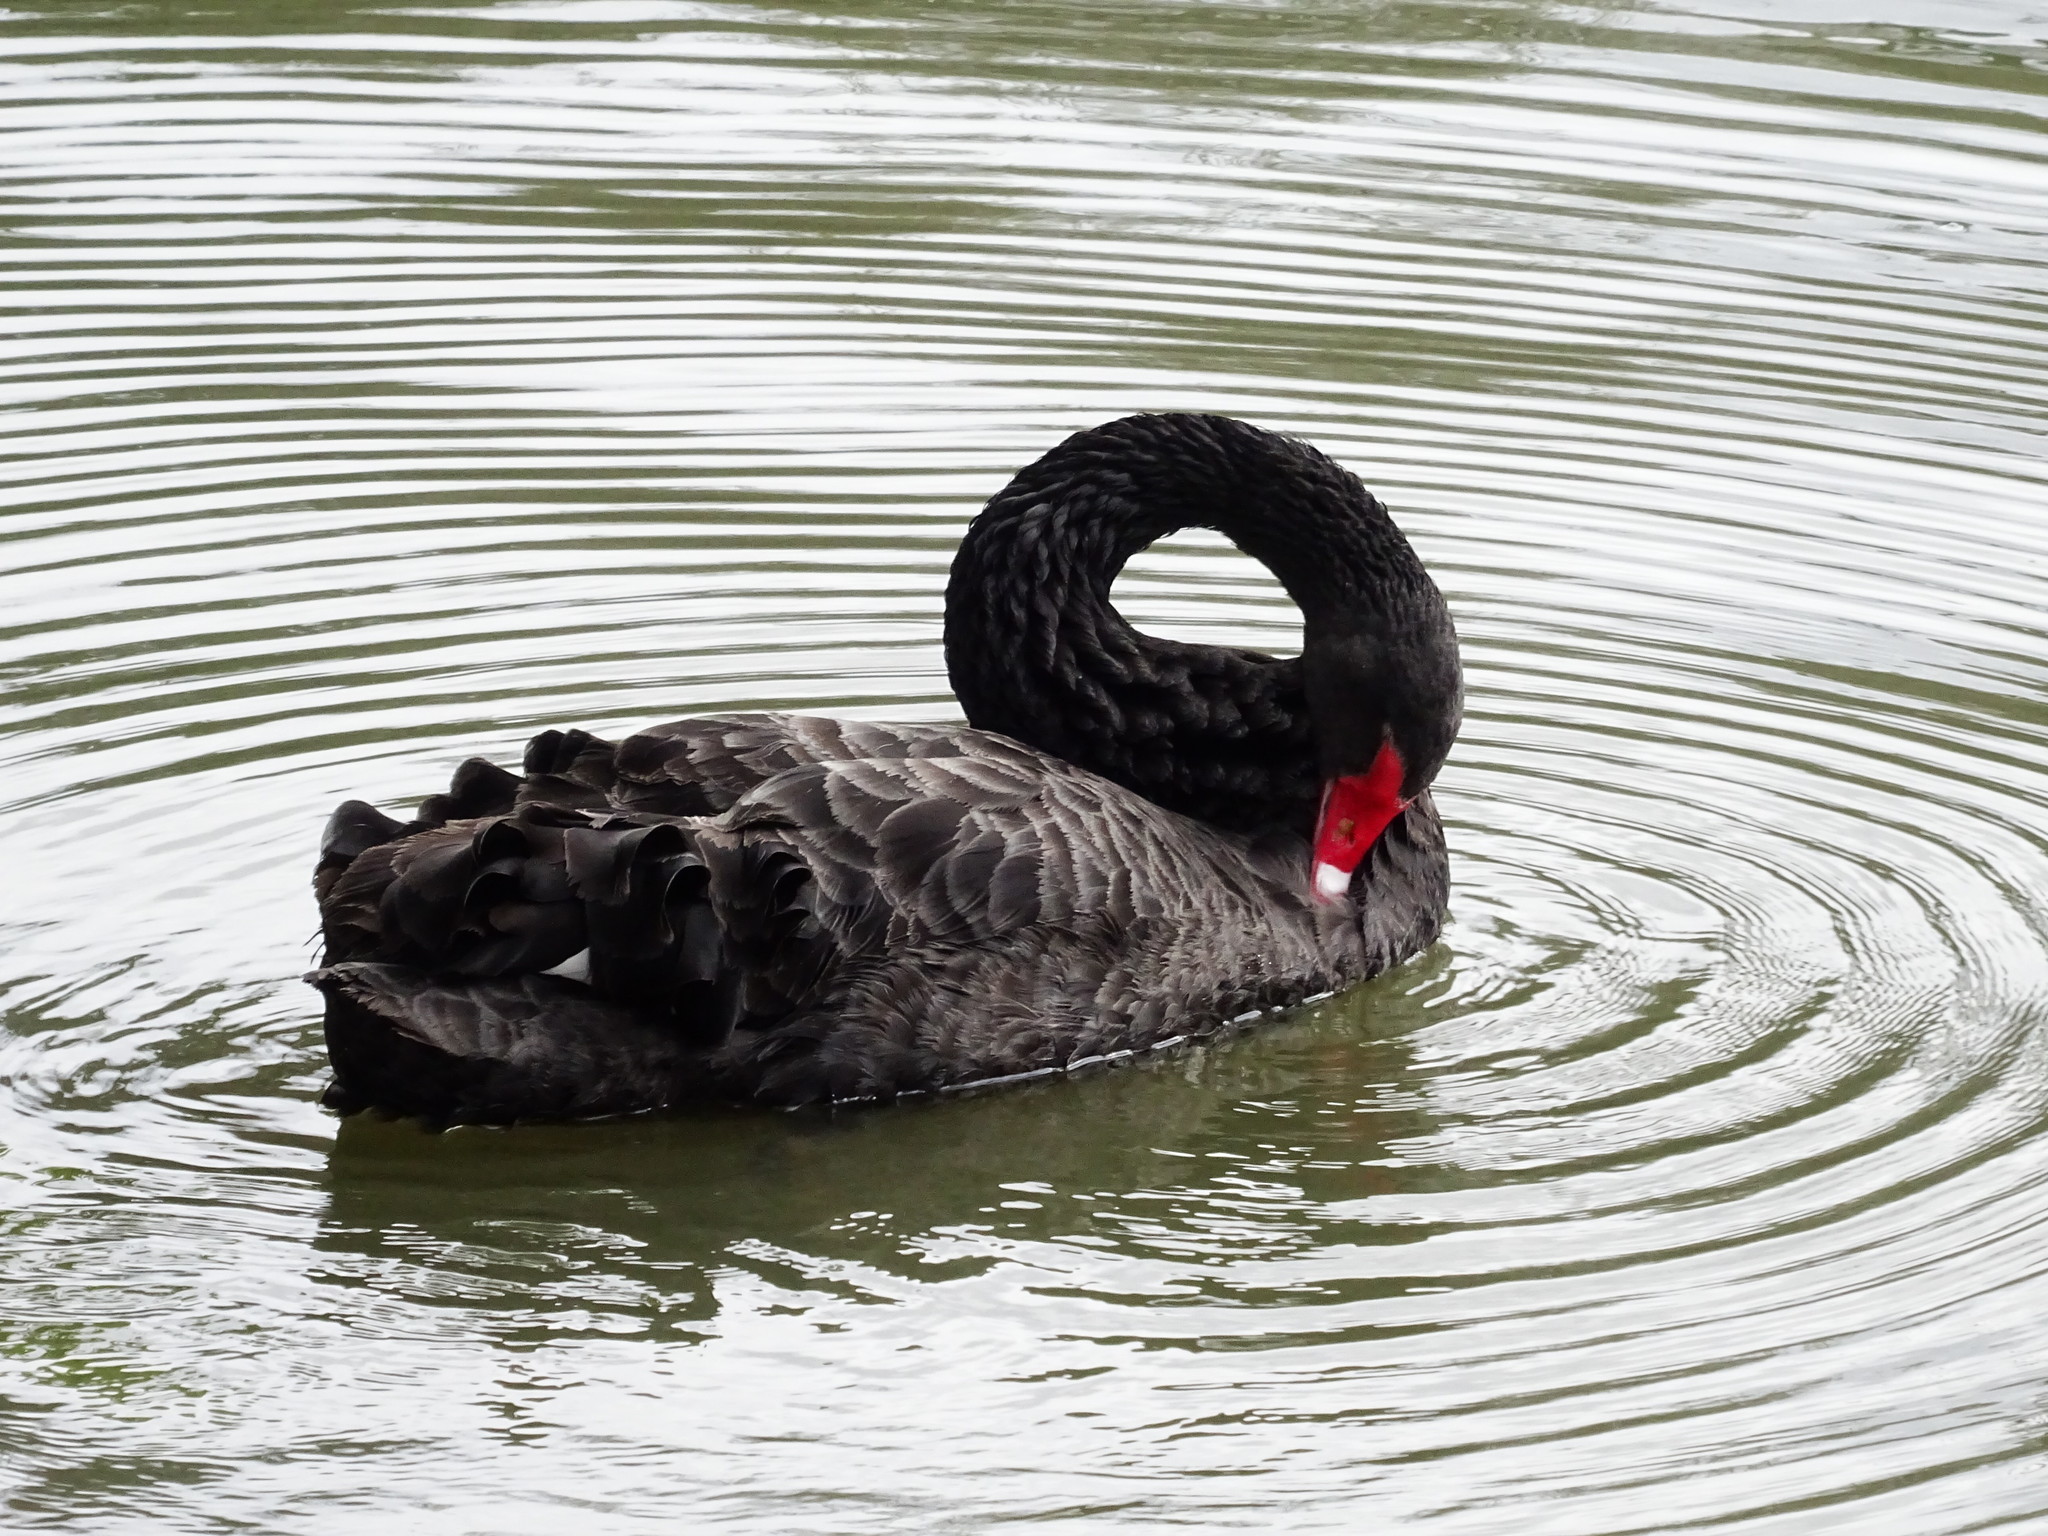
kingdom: Animalia
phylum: Chordata
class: Aves
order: Anseriformes
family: Anatidae
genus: Cygnus
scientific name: Cygnus atratus
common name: Black swan
